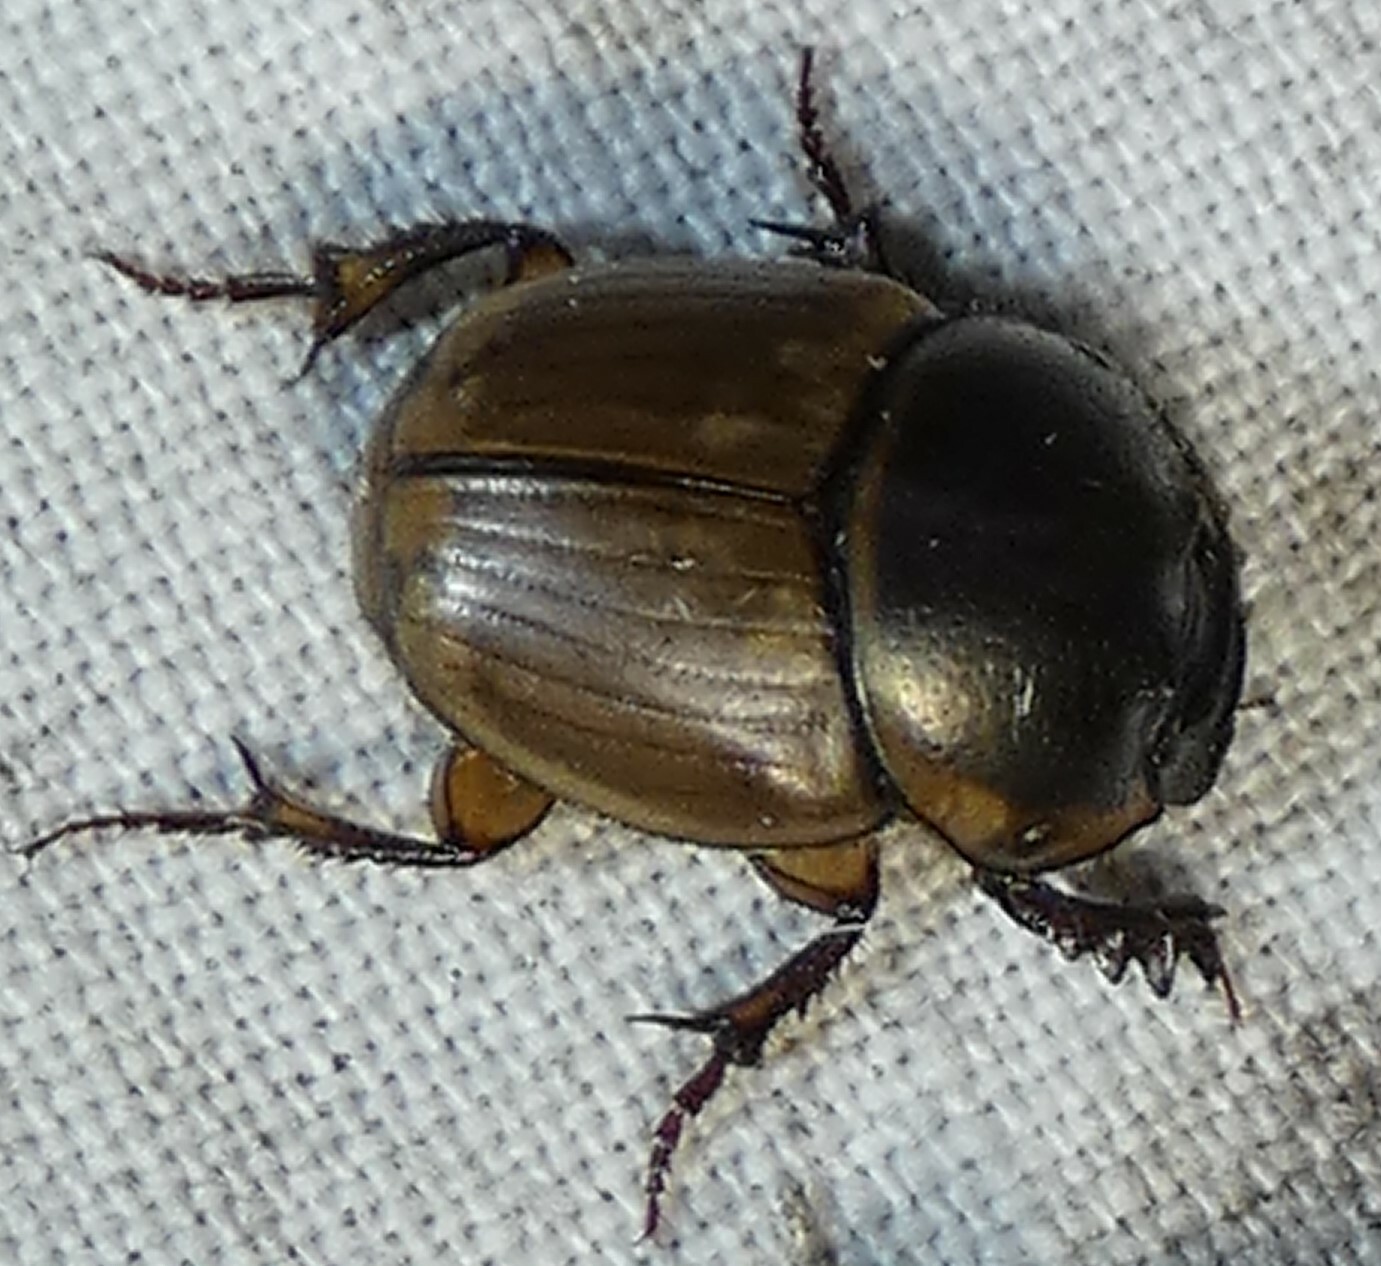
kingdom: Animalia
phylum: Arthropoda
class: Insecta
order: Coleoptera
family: Scarabaeidae
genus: Digitonthophagus
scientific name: Digitonthophagus gazella
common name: Brown dung beetle
